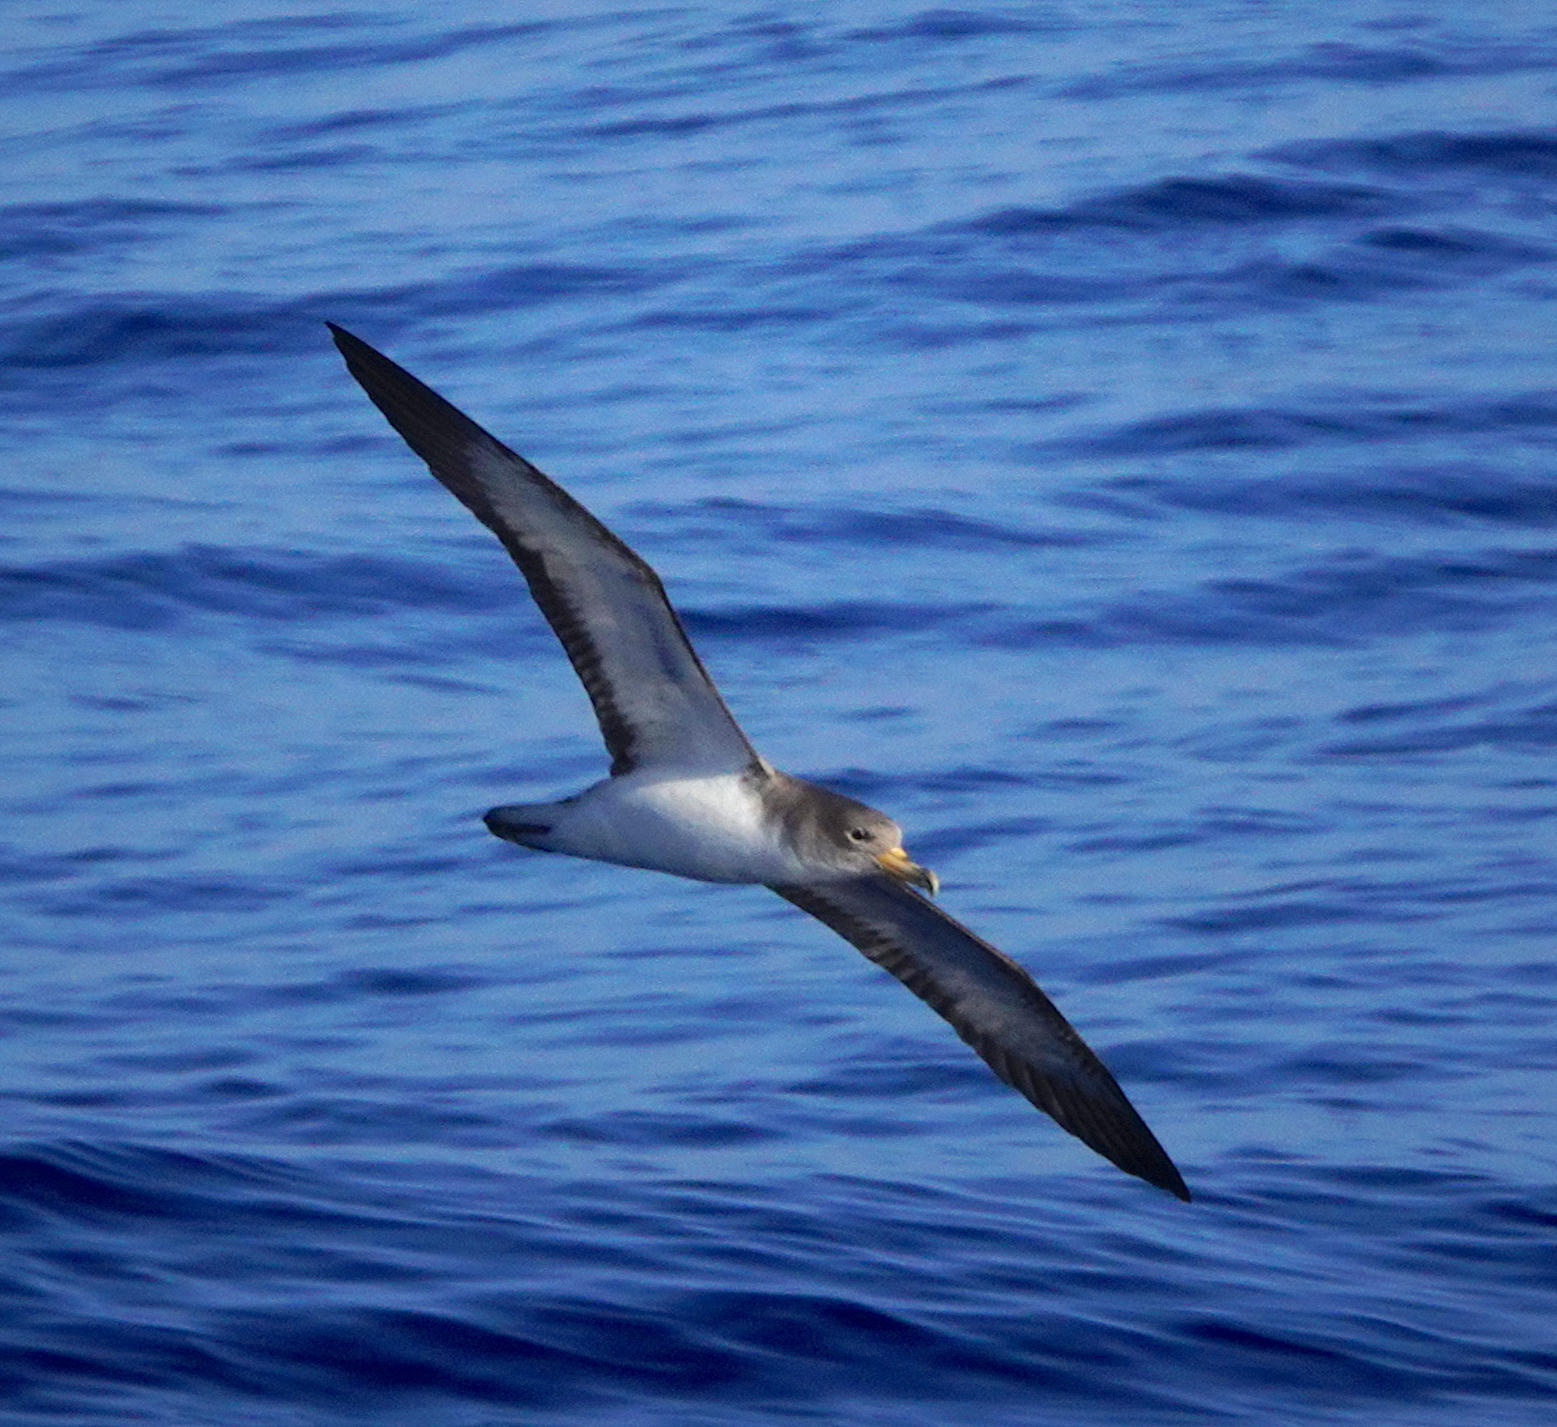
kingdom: Animalia
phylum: Chordata
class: Aves
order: Procellariiformes
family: Procellariidae
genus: Calonectris
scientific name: Calonectris diomedea
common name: Cory's shearwater
